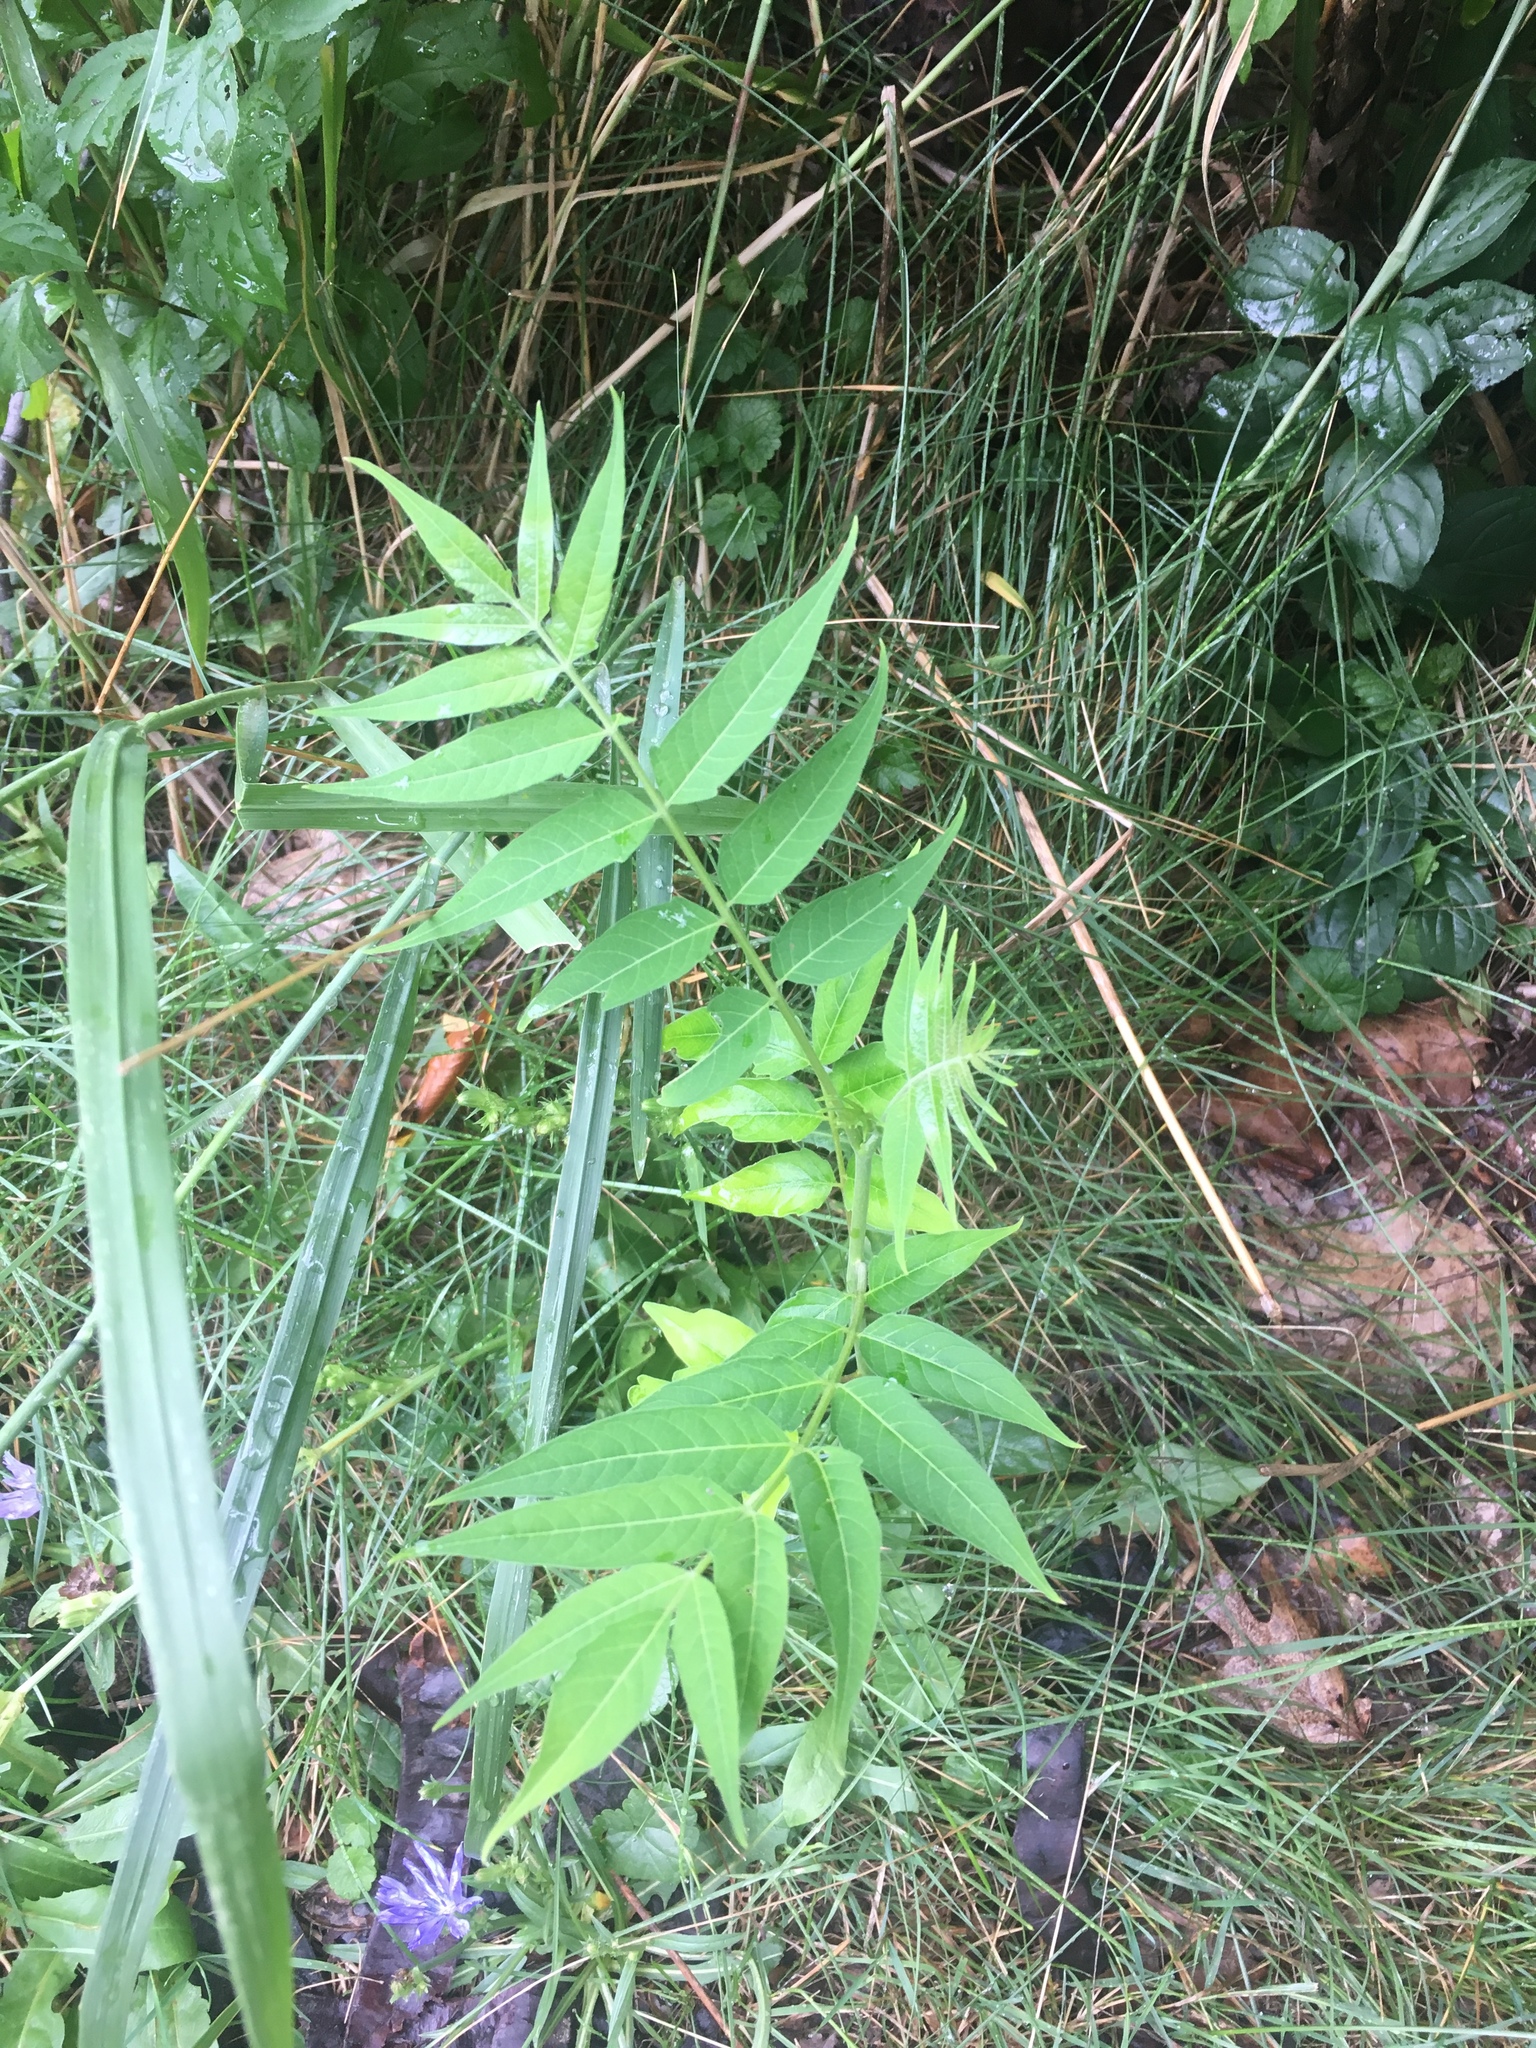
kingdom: Plantae
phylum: Tracheophyta
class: Magnoliopsida
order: Sapindales
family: Simaroubaceae
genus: Ailanthus
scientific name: Ailanthus altissima
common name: Tree-of-heaven
